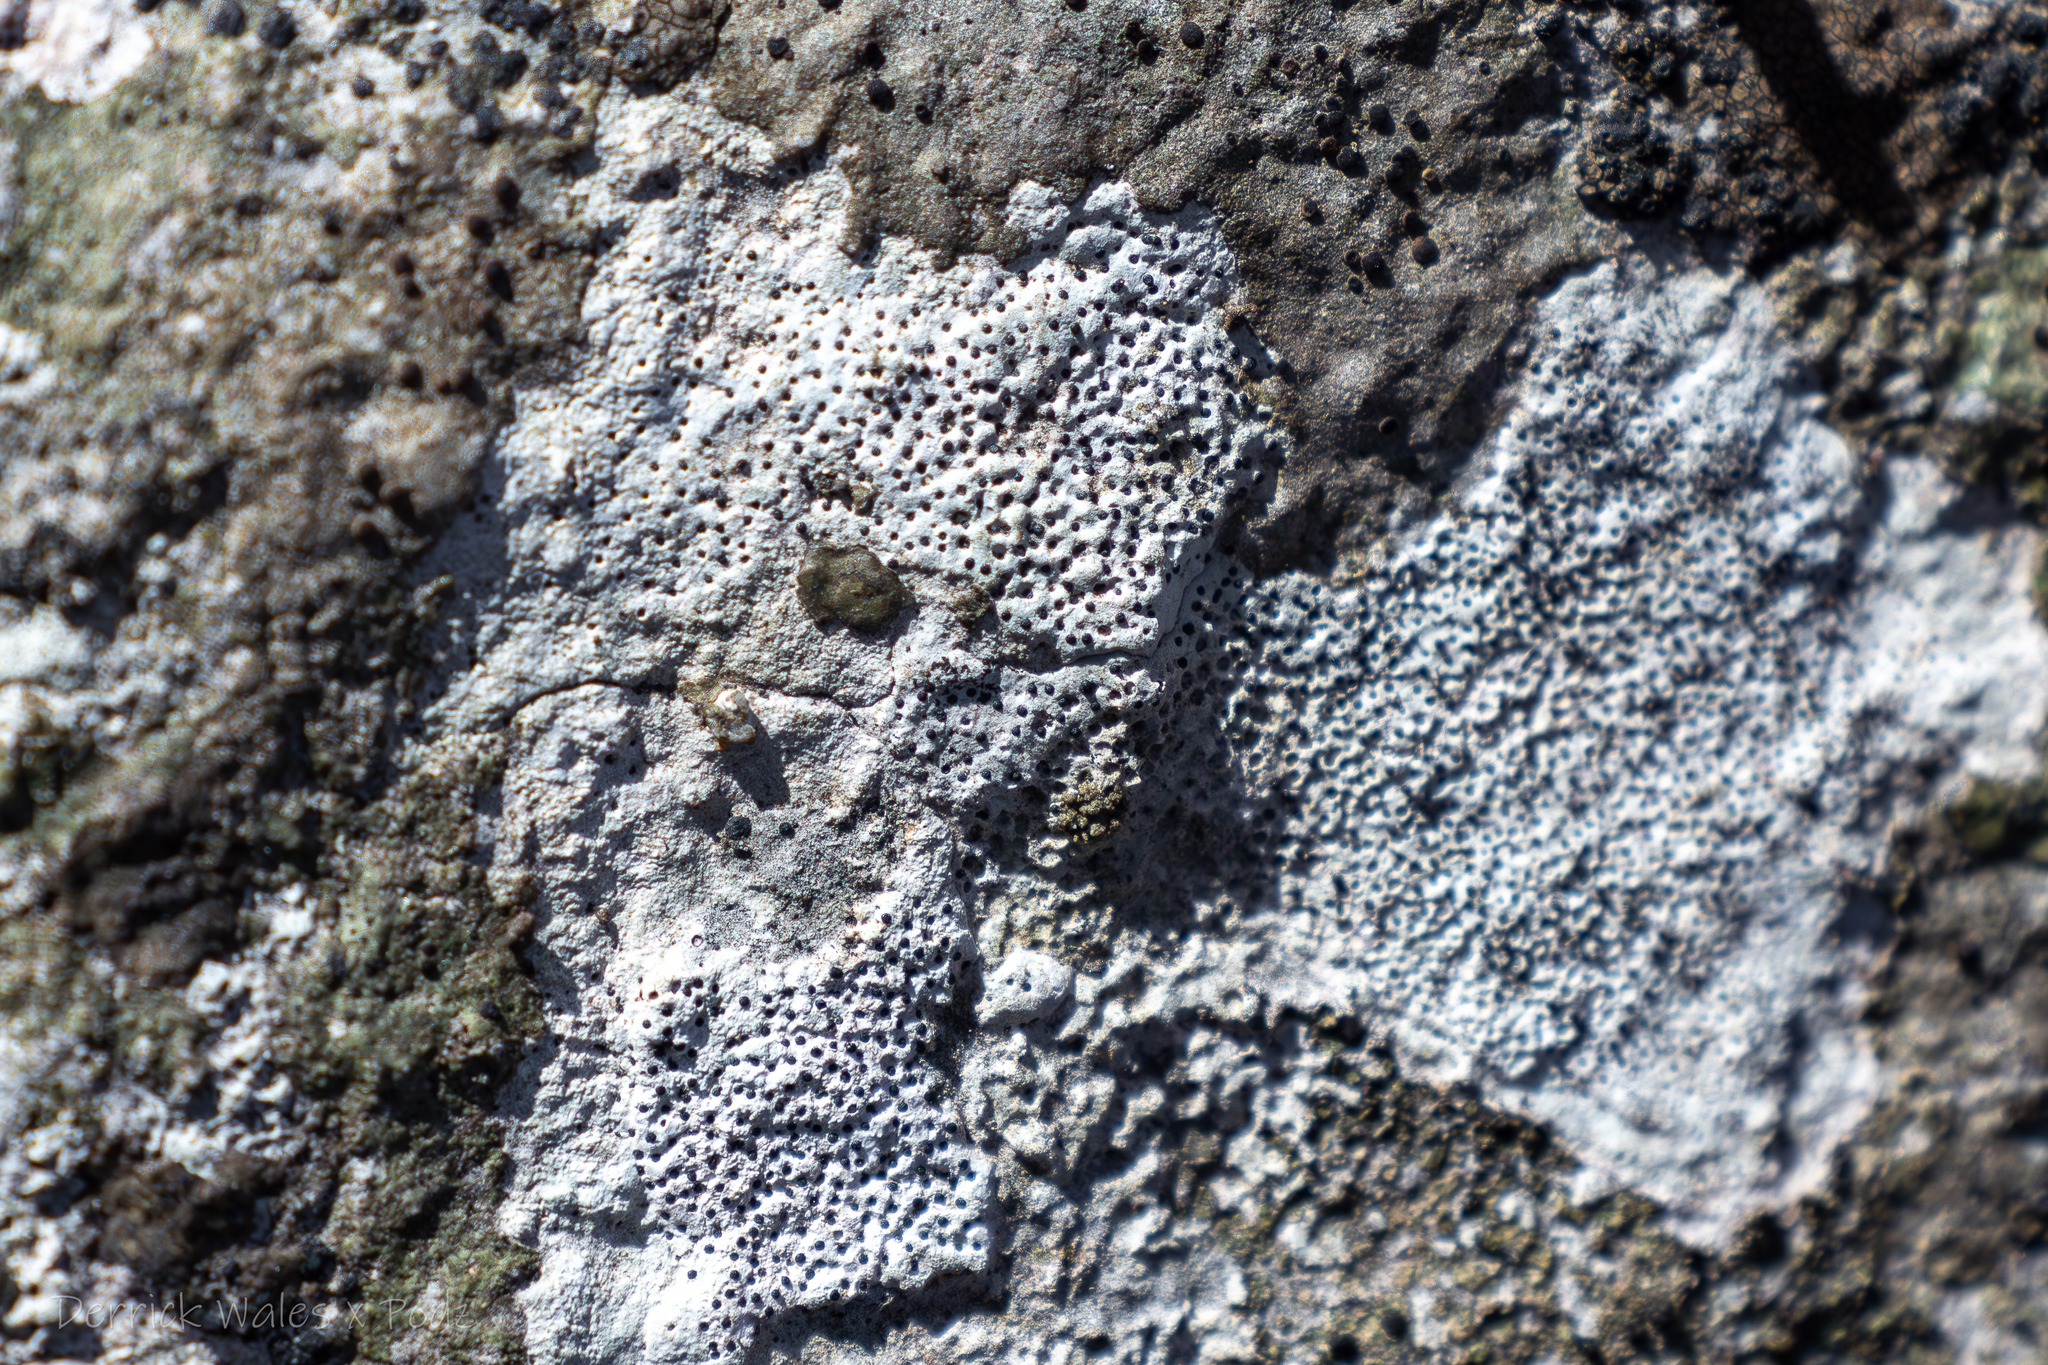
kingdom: Fungi
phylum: Ascomycota
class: Eurotiomycetes
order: Verrucariales
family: Verrucariaceae
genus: Bagliettoa
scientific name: Bagliettoa
